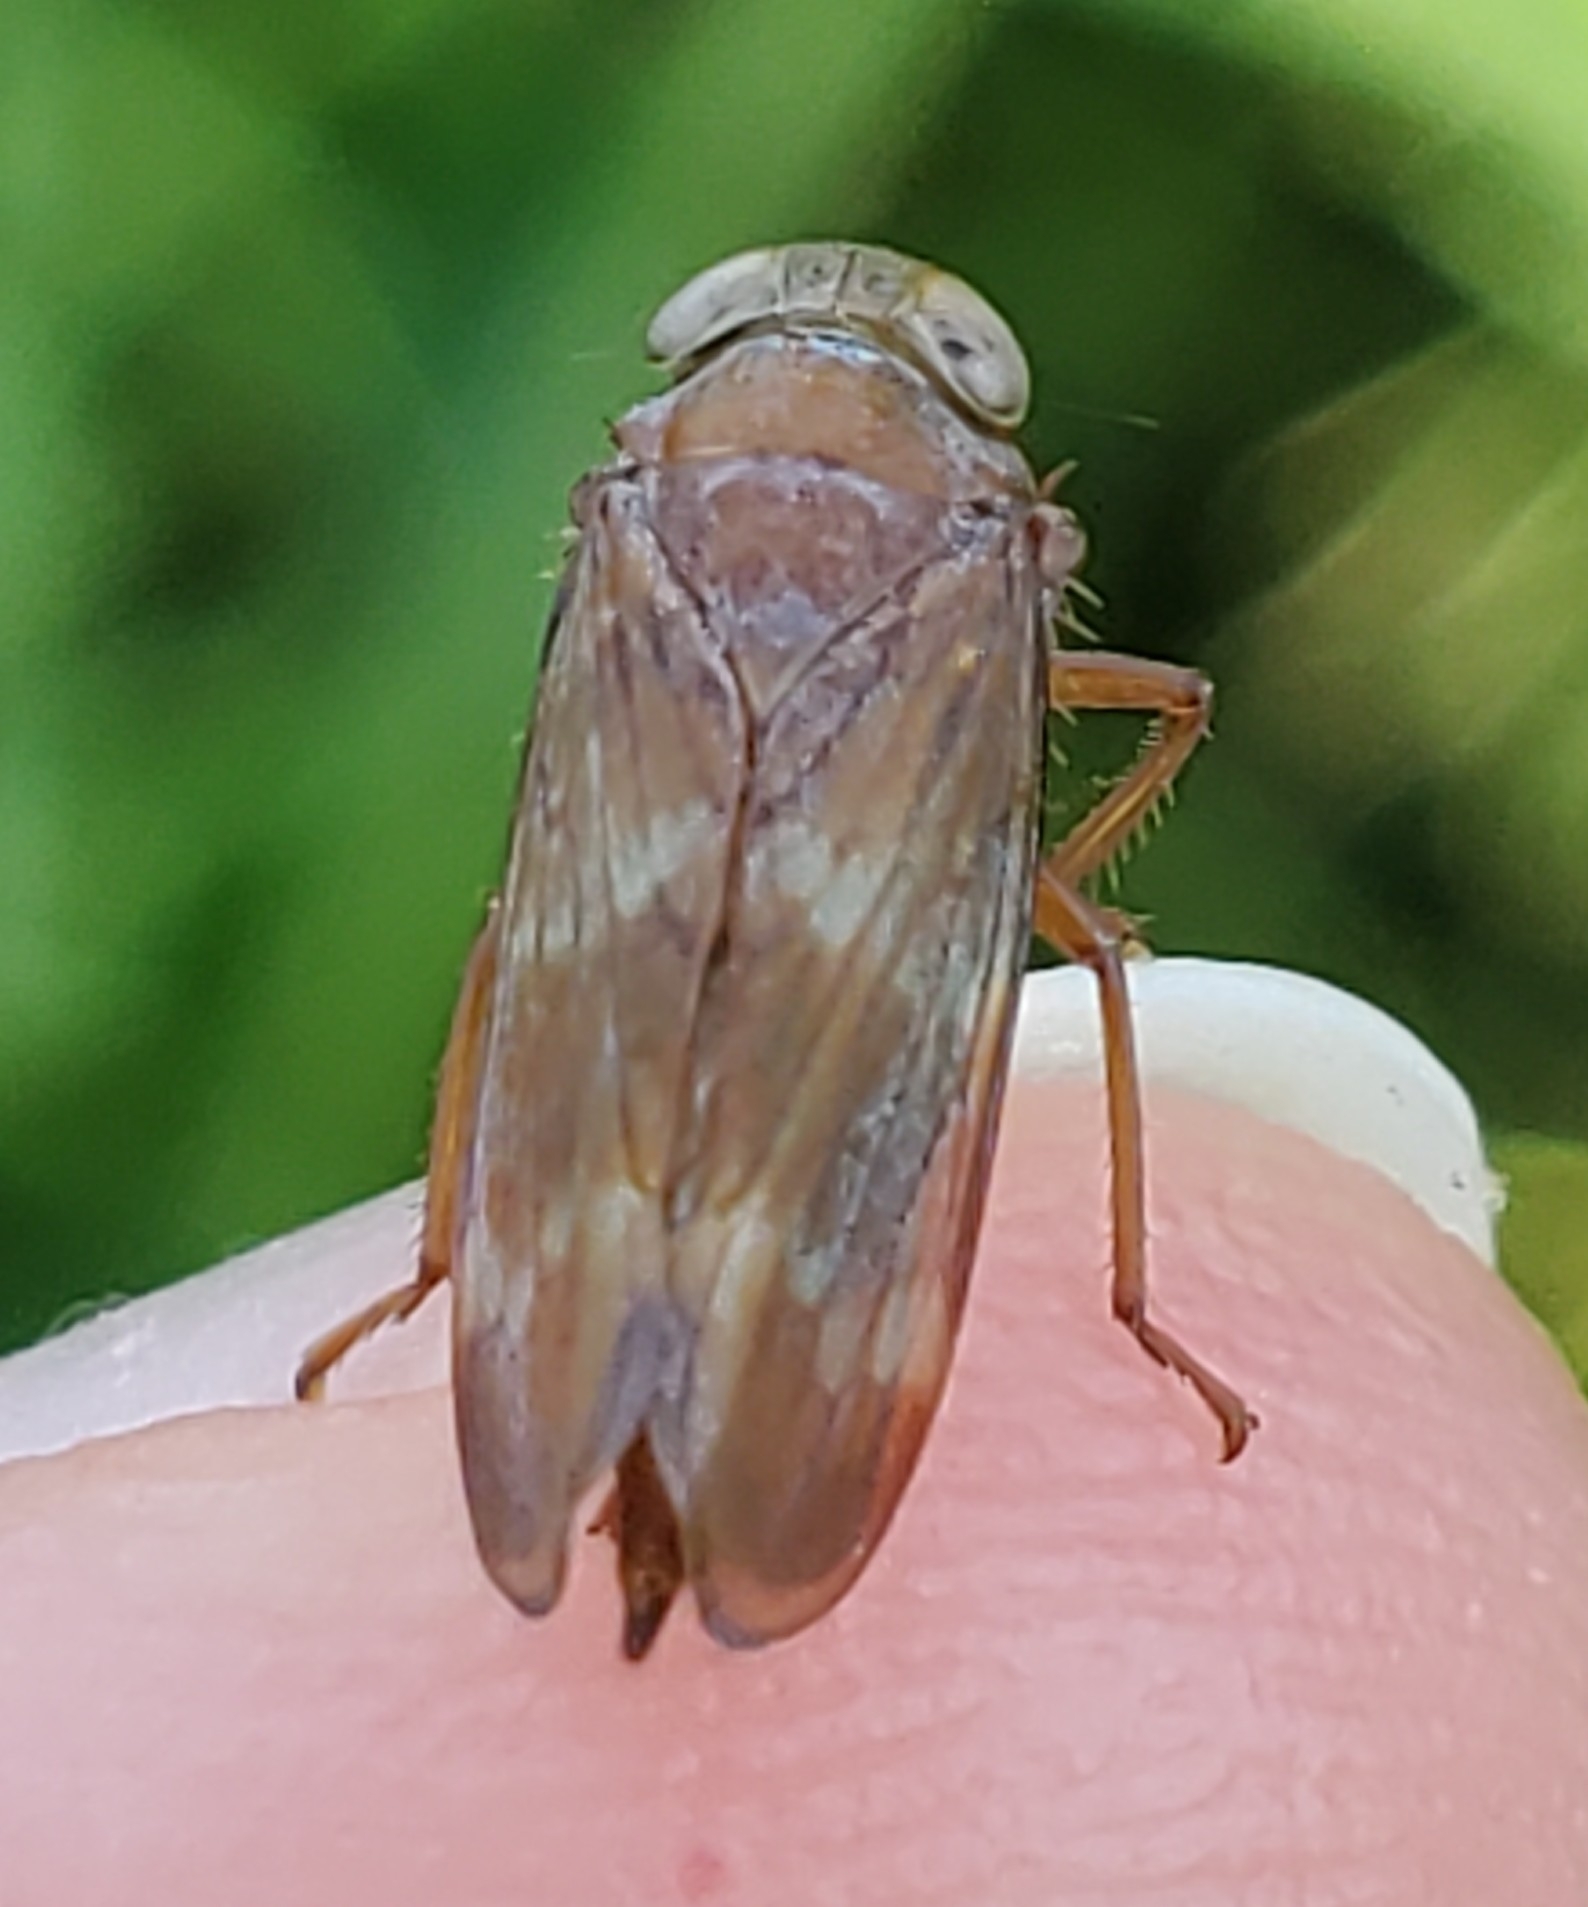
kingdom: Animalia
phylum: Arthropoda
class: Insecta
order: Hemiptera
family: Cicadellidae
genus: Jikradia
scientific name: Jikradia olitoria
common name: Coppery leafhopper
